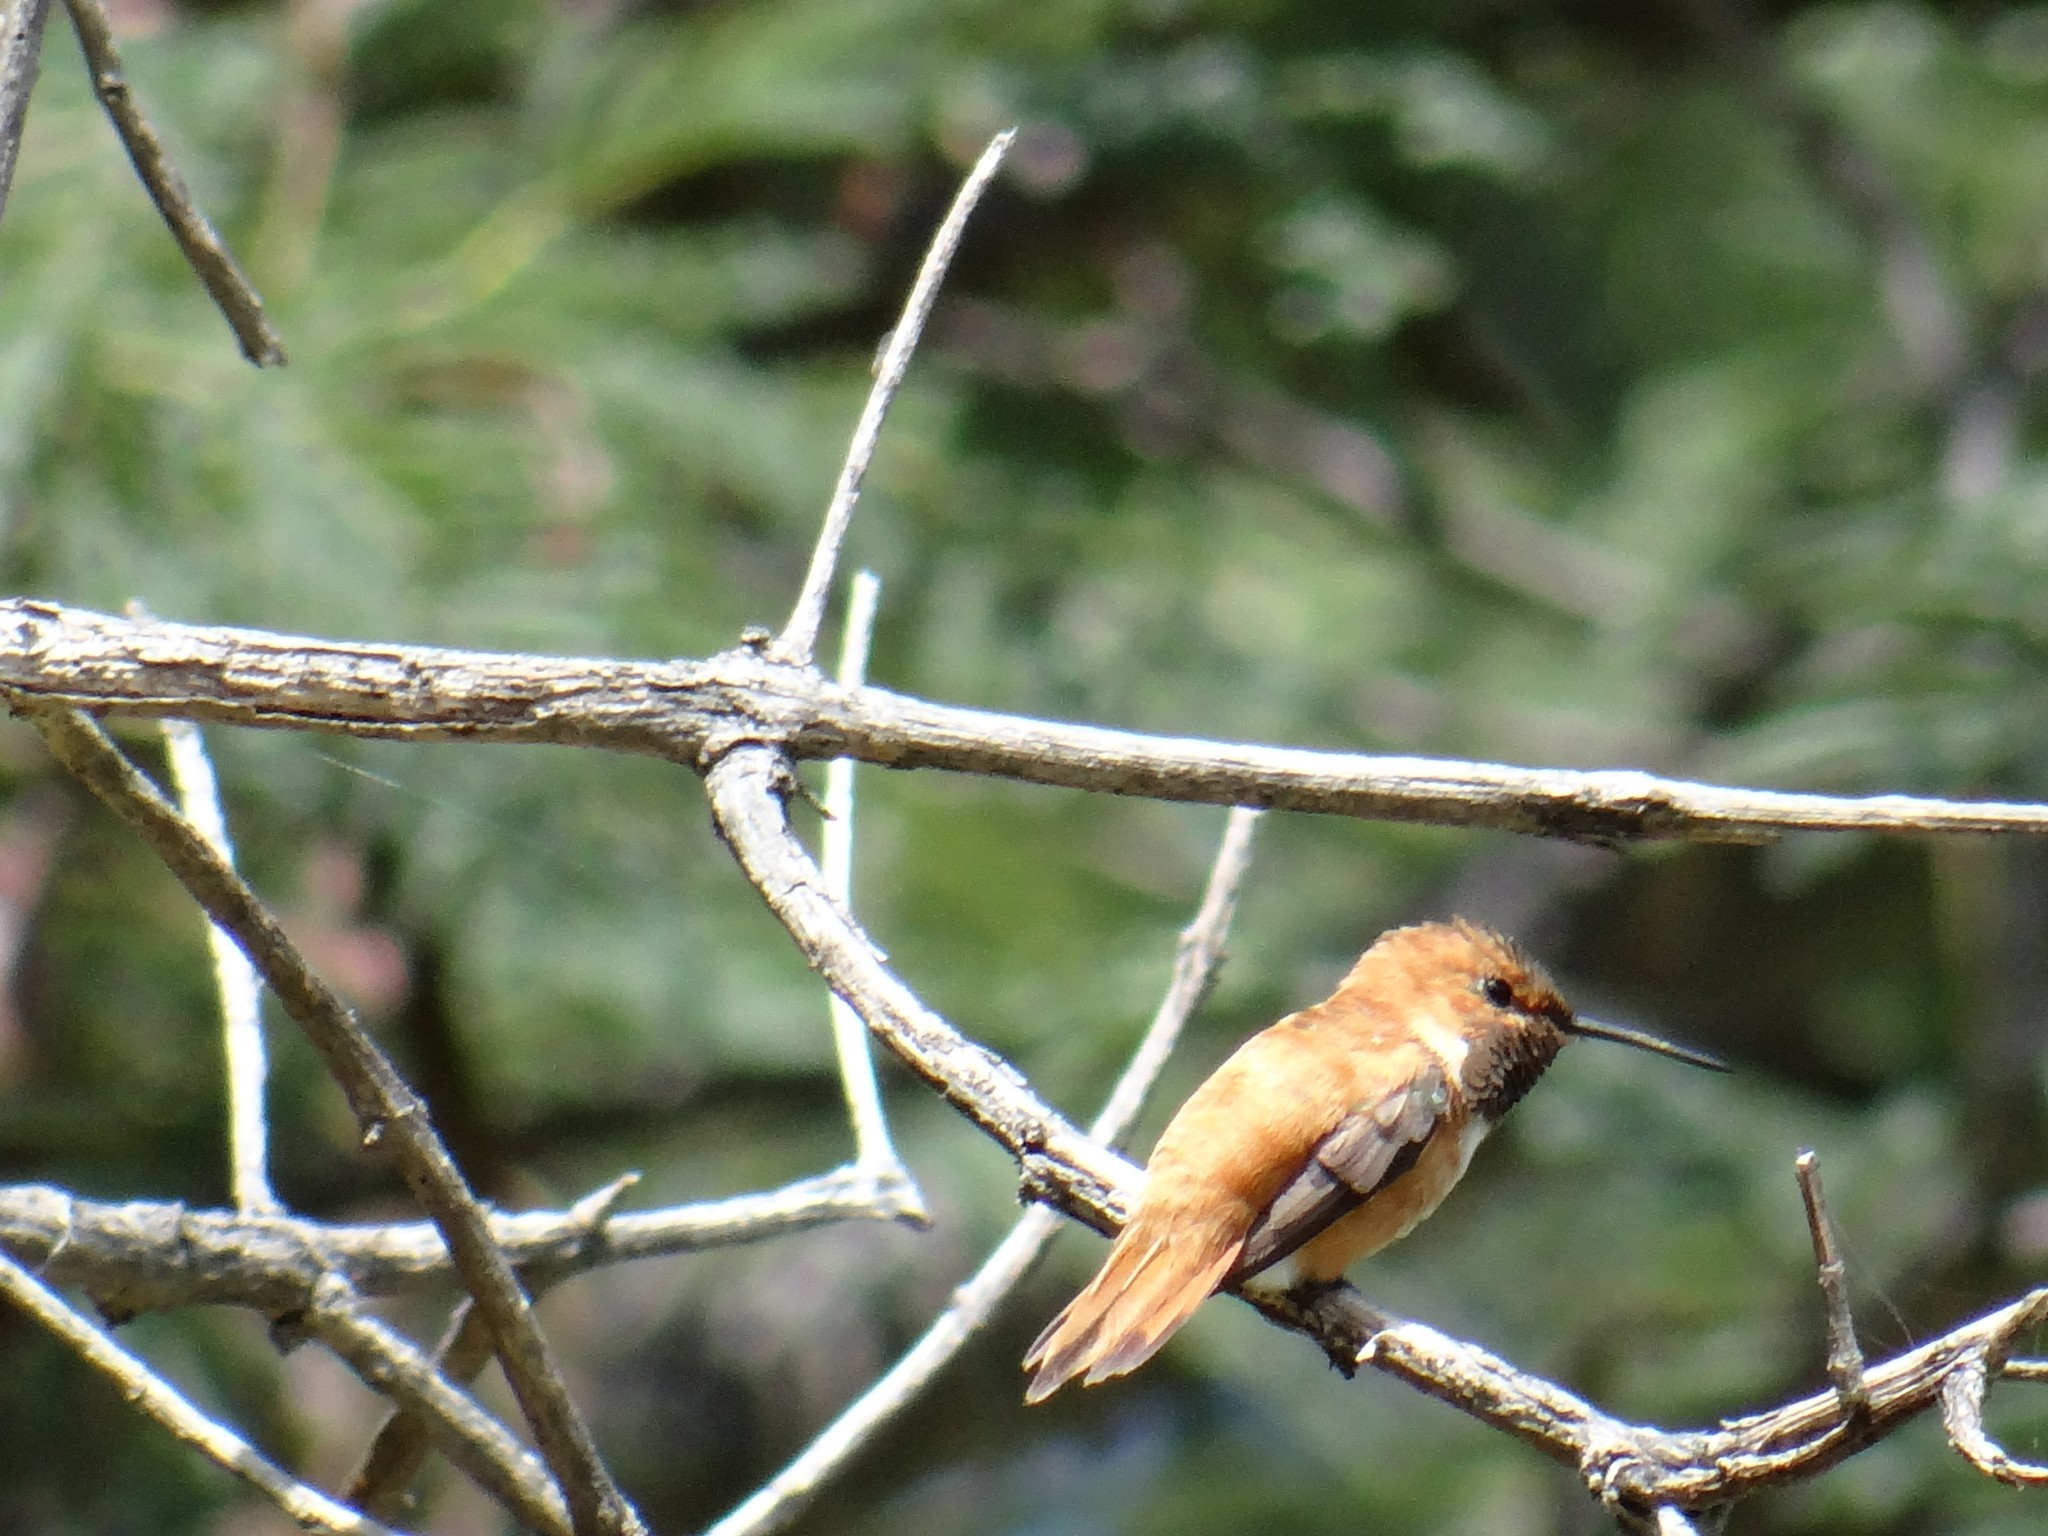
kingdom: Animalia
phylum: Chordata
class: Aves
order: Apodiformes
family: Trochilidae
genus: Selasphorus
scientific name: Selasphorus rufus
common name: Rufous hummingbird
